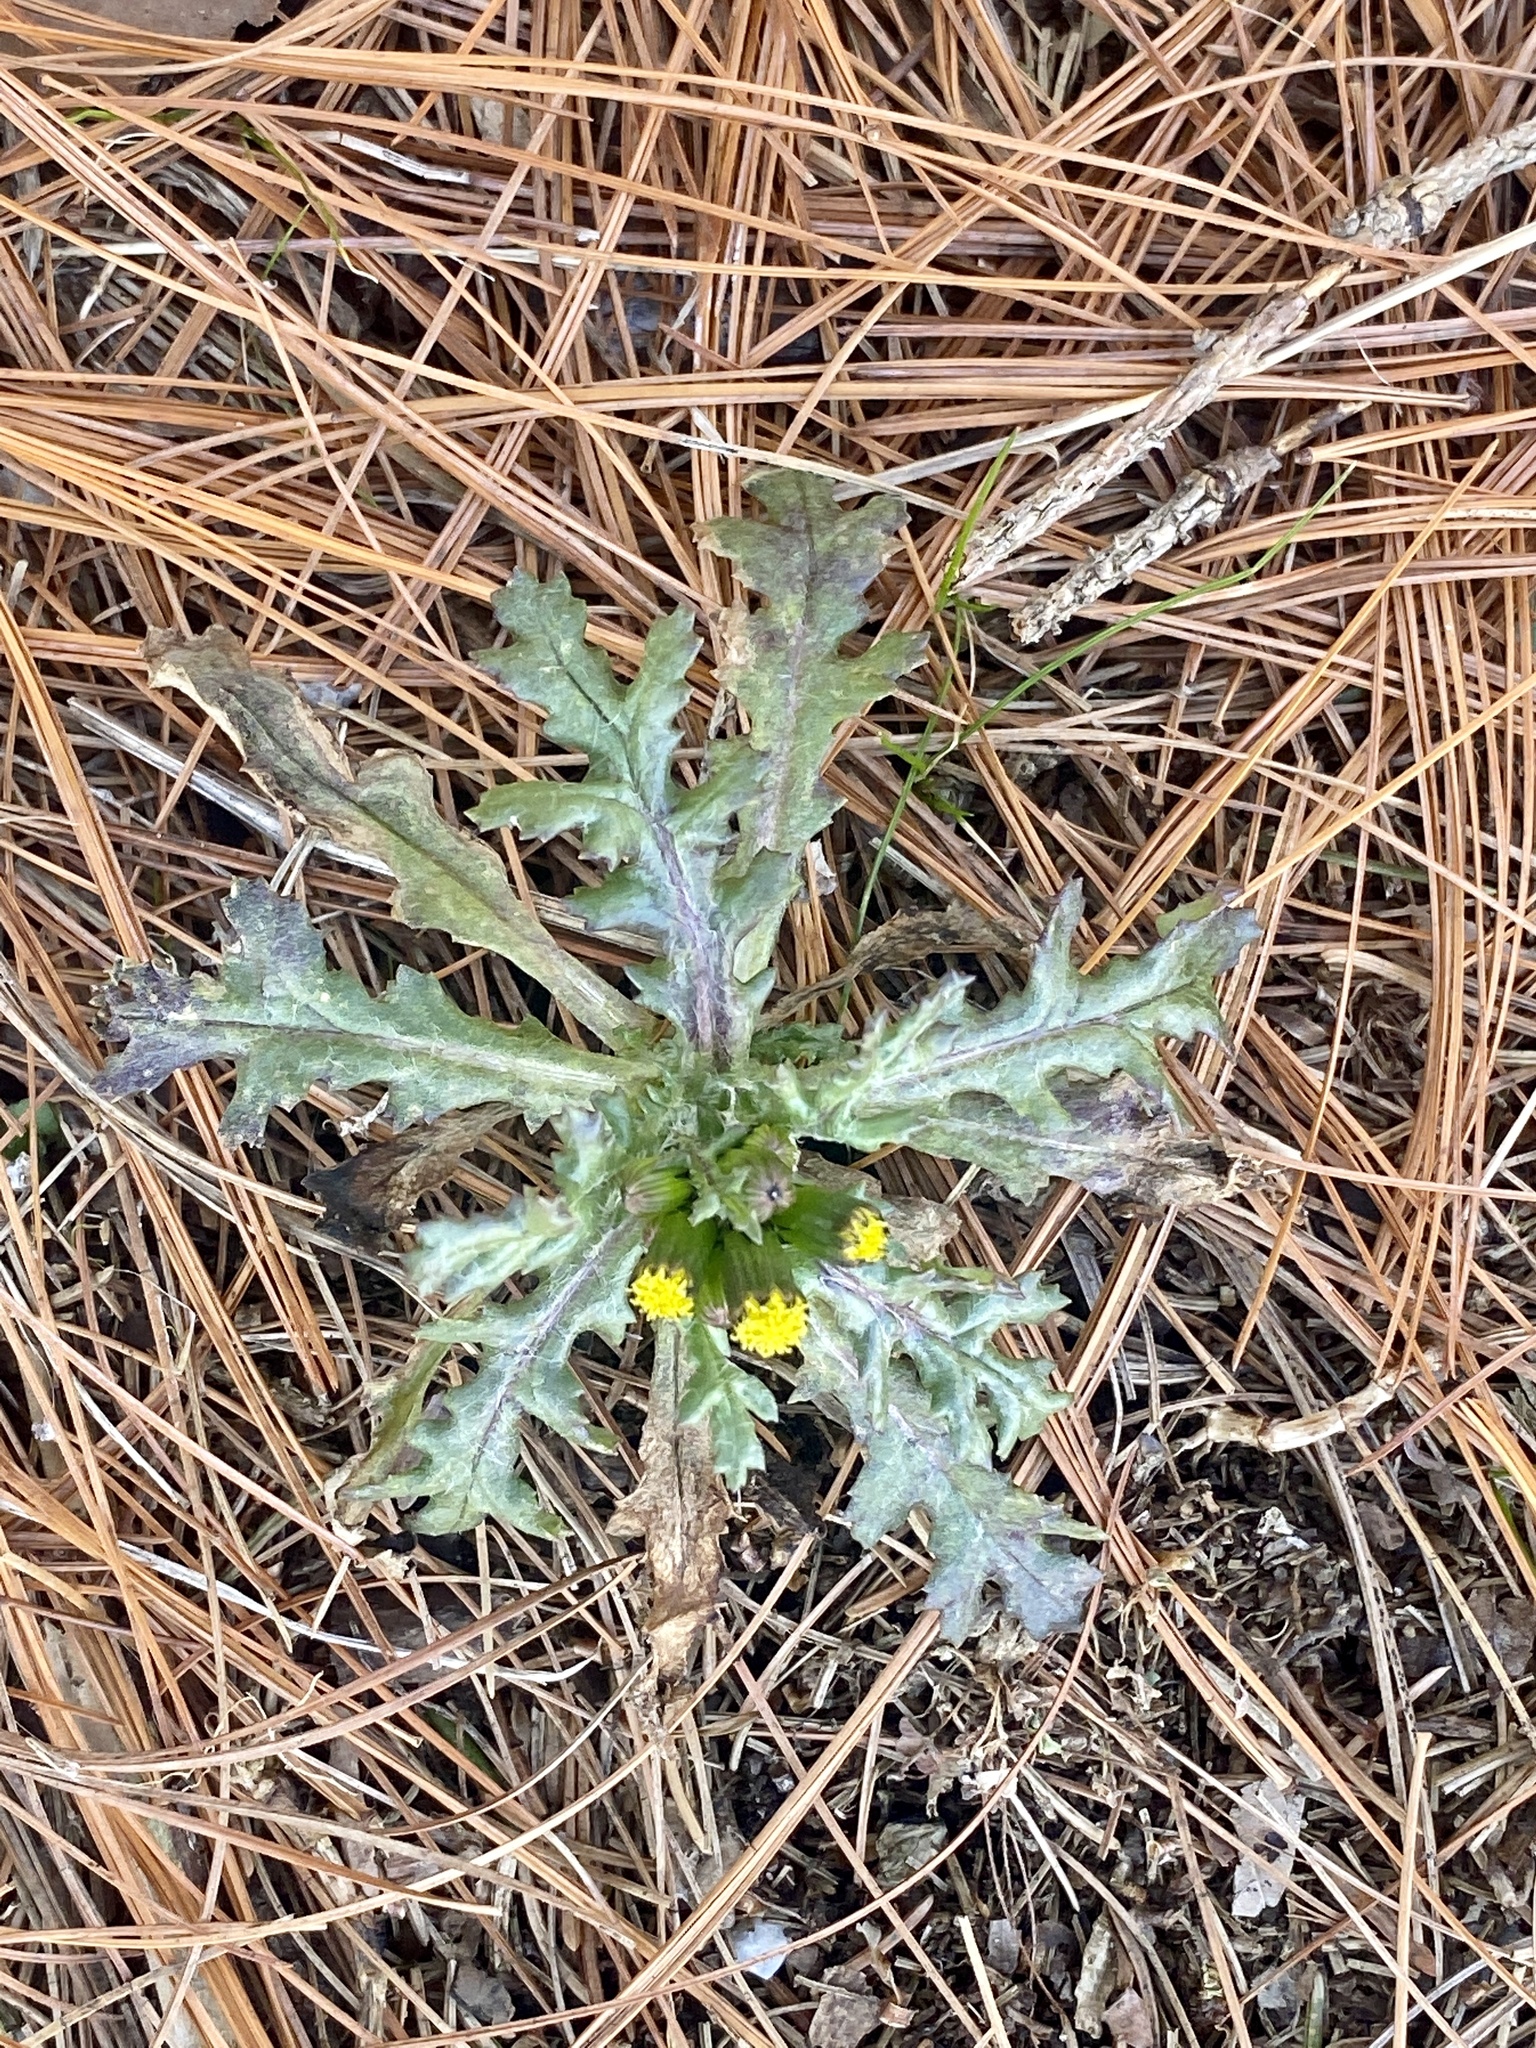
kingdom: Plantae
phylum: Tracheophyta
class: Magnoliopsida
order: Asterales
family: Asteraceae
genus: Senecio
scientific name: Senecio vulgaris
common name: Old-man-in-the-spring
